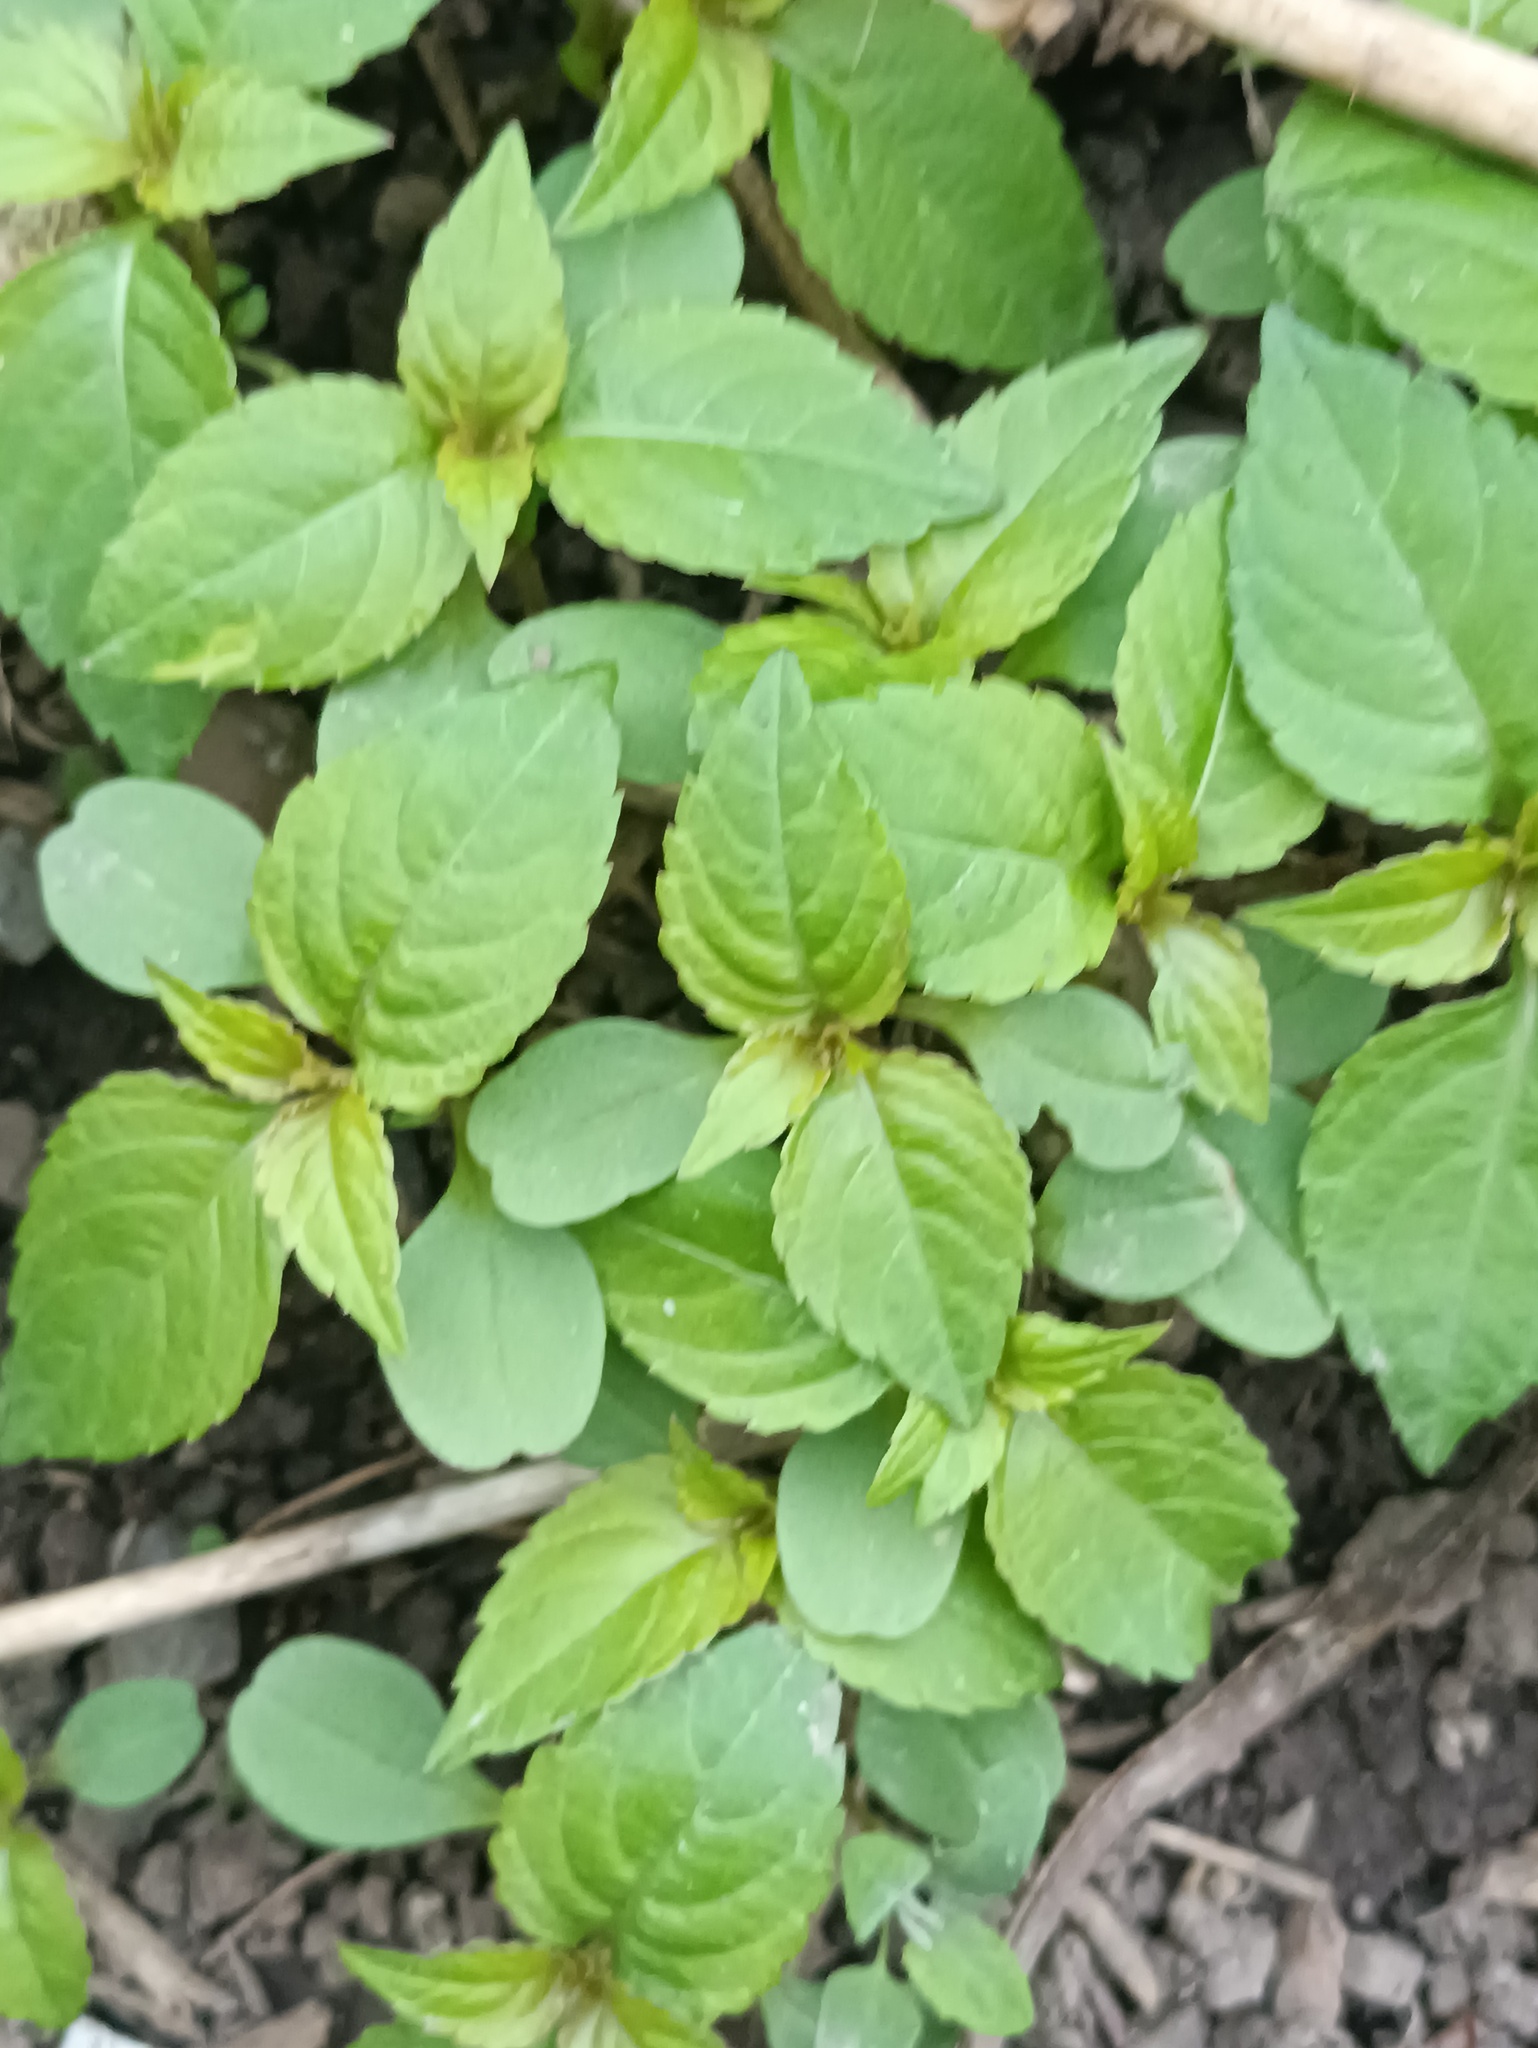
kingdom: Plantae
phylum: Tracheophyta
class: Magnoliopsida
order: Ericales
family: Balsaminaceae
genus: Impatiens
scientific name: Impatiens parviflora
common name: Small balsam
